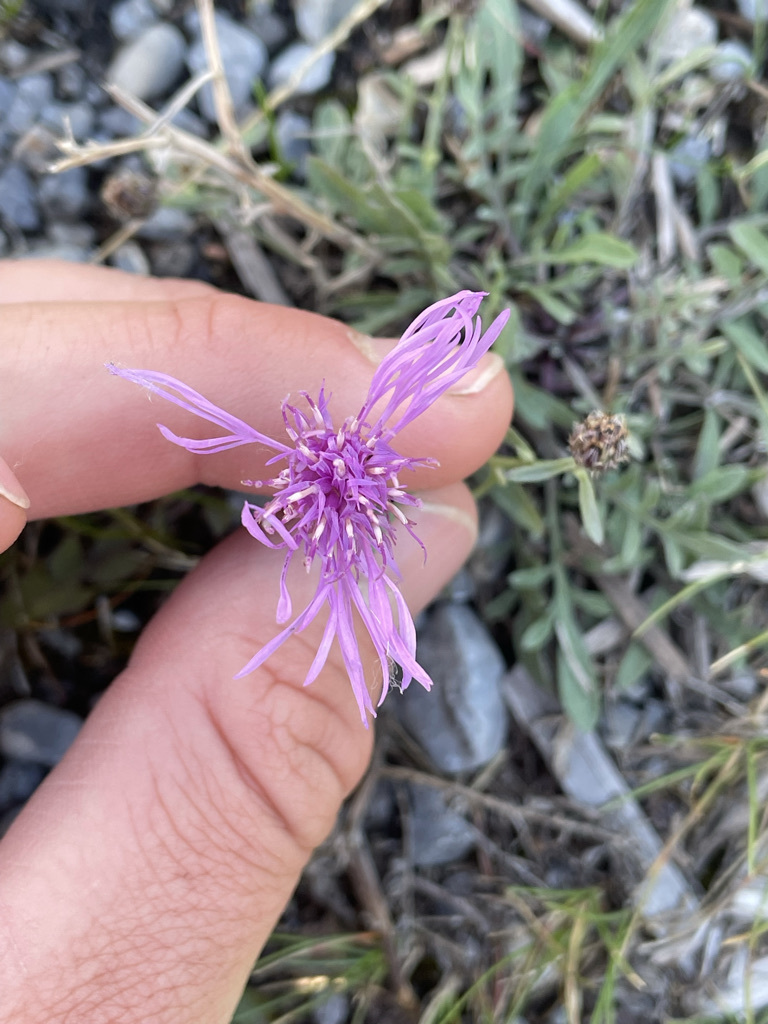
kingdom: Plantae
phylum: Tracheophyta
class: Magnoliopsida
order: Asterales
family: Asteraceae
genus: Centaurea
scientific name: Centaurea stoebe
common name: Spotted knapweed
